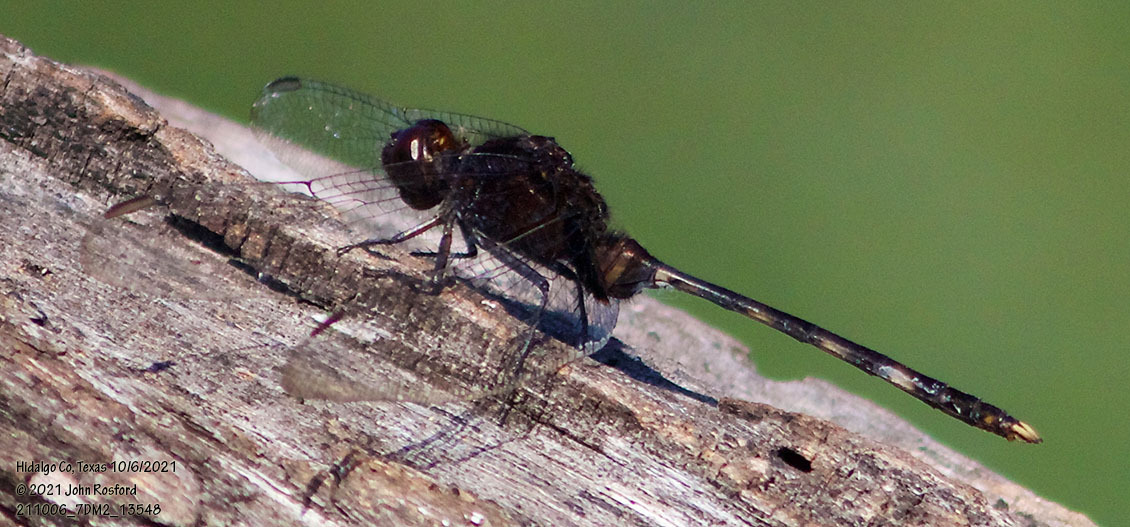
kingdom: Animalia
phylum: Arthropoda
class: Insecta
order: Odonata
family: Libellulidae
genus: Erythemis
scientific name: Erythemis plebeja
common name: Pin-tailed pondhawk
